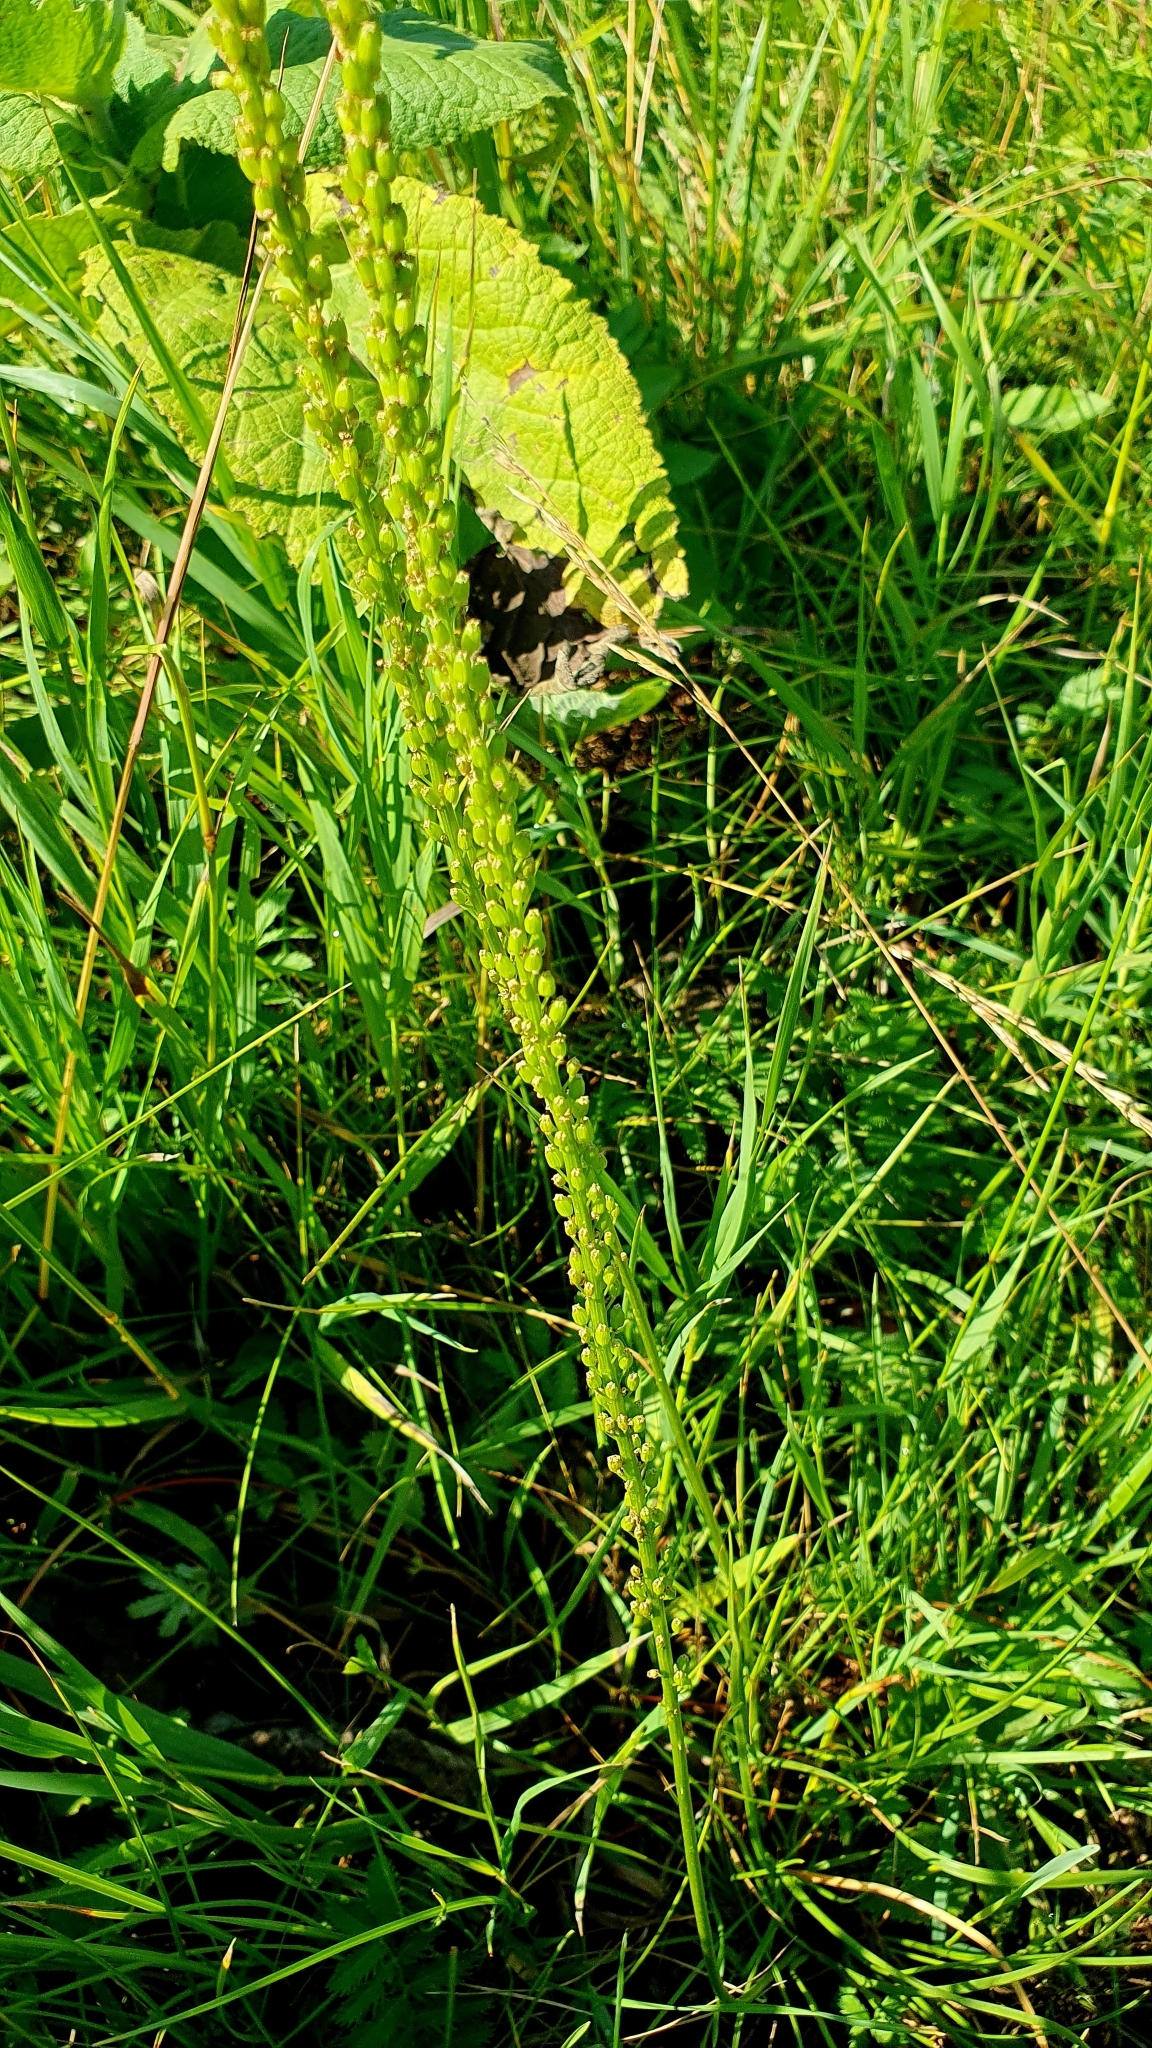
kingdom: Plantae
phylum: Tracheophyta
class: Liliopsida
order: Alismatales
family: Juncaginaceae
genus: Triglochin
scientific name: Triglochin maritima
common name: Sea arrowgrass
